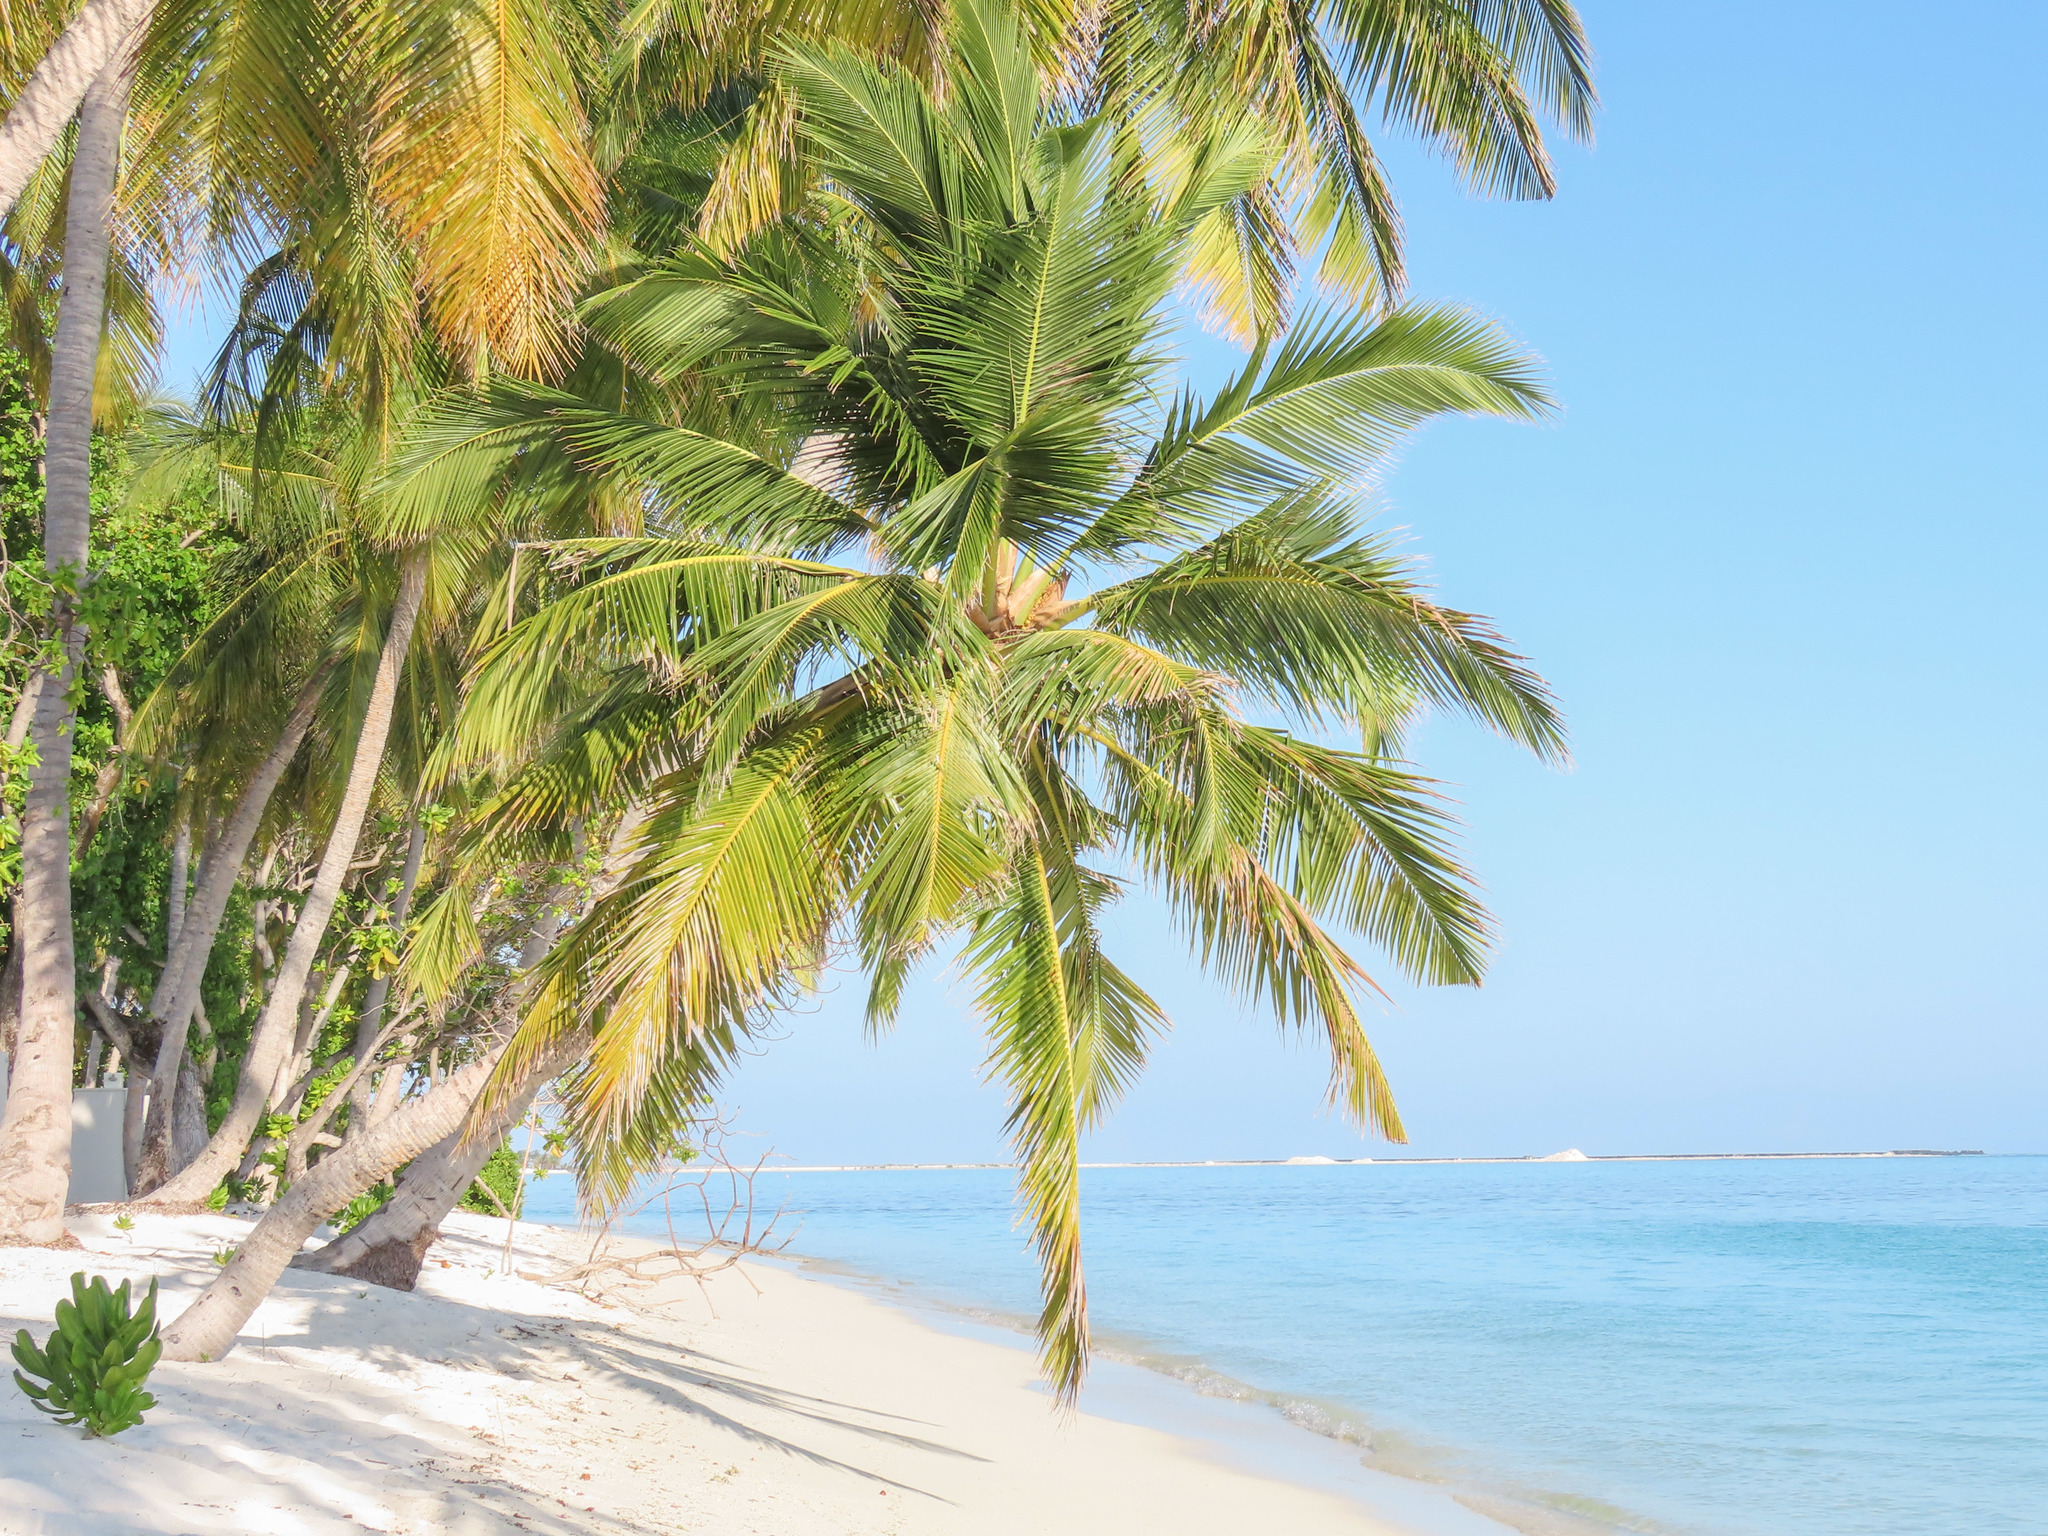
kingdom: Plantae
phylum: Tracheophyta
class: Liliopsida
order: Arecales
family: Arecaceae
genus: Cocos
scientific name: Cocos nucifera
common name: Coconut palm
